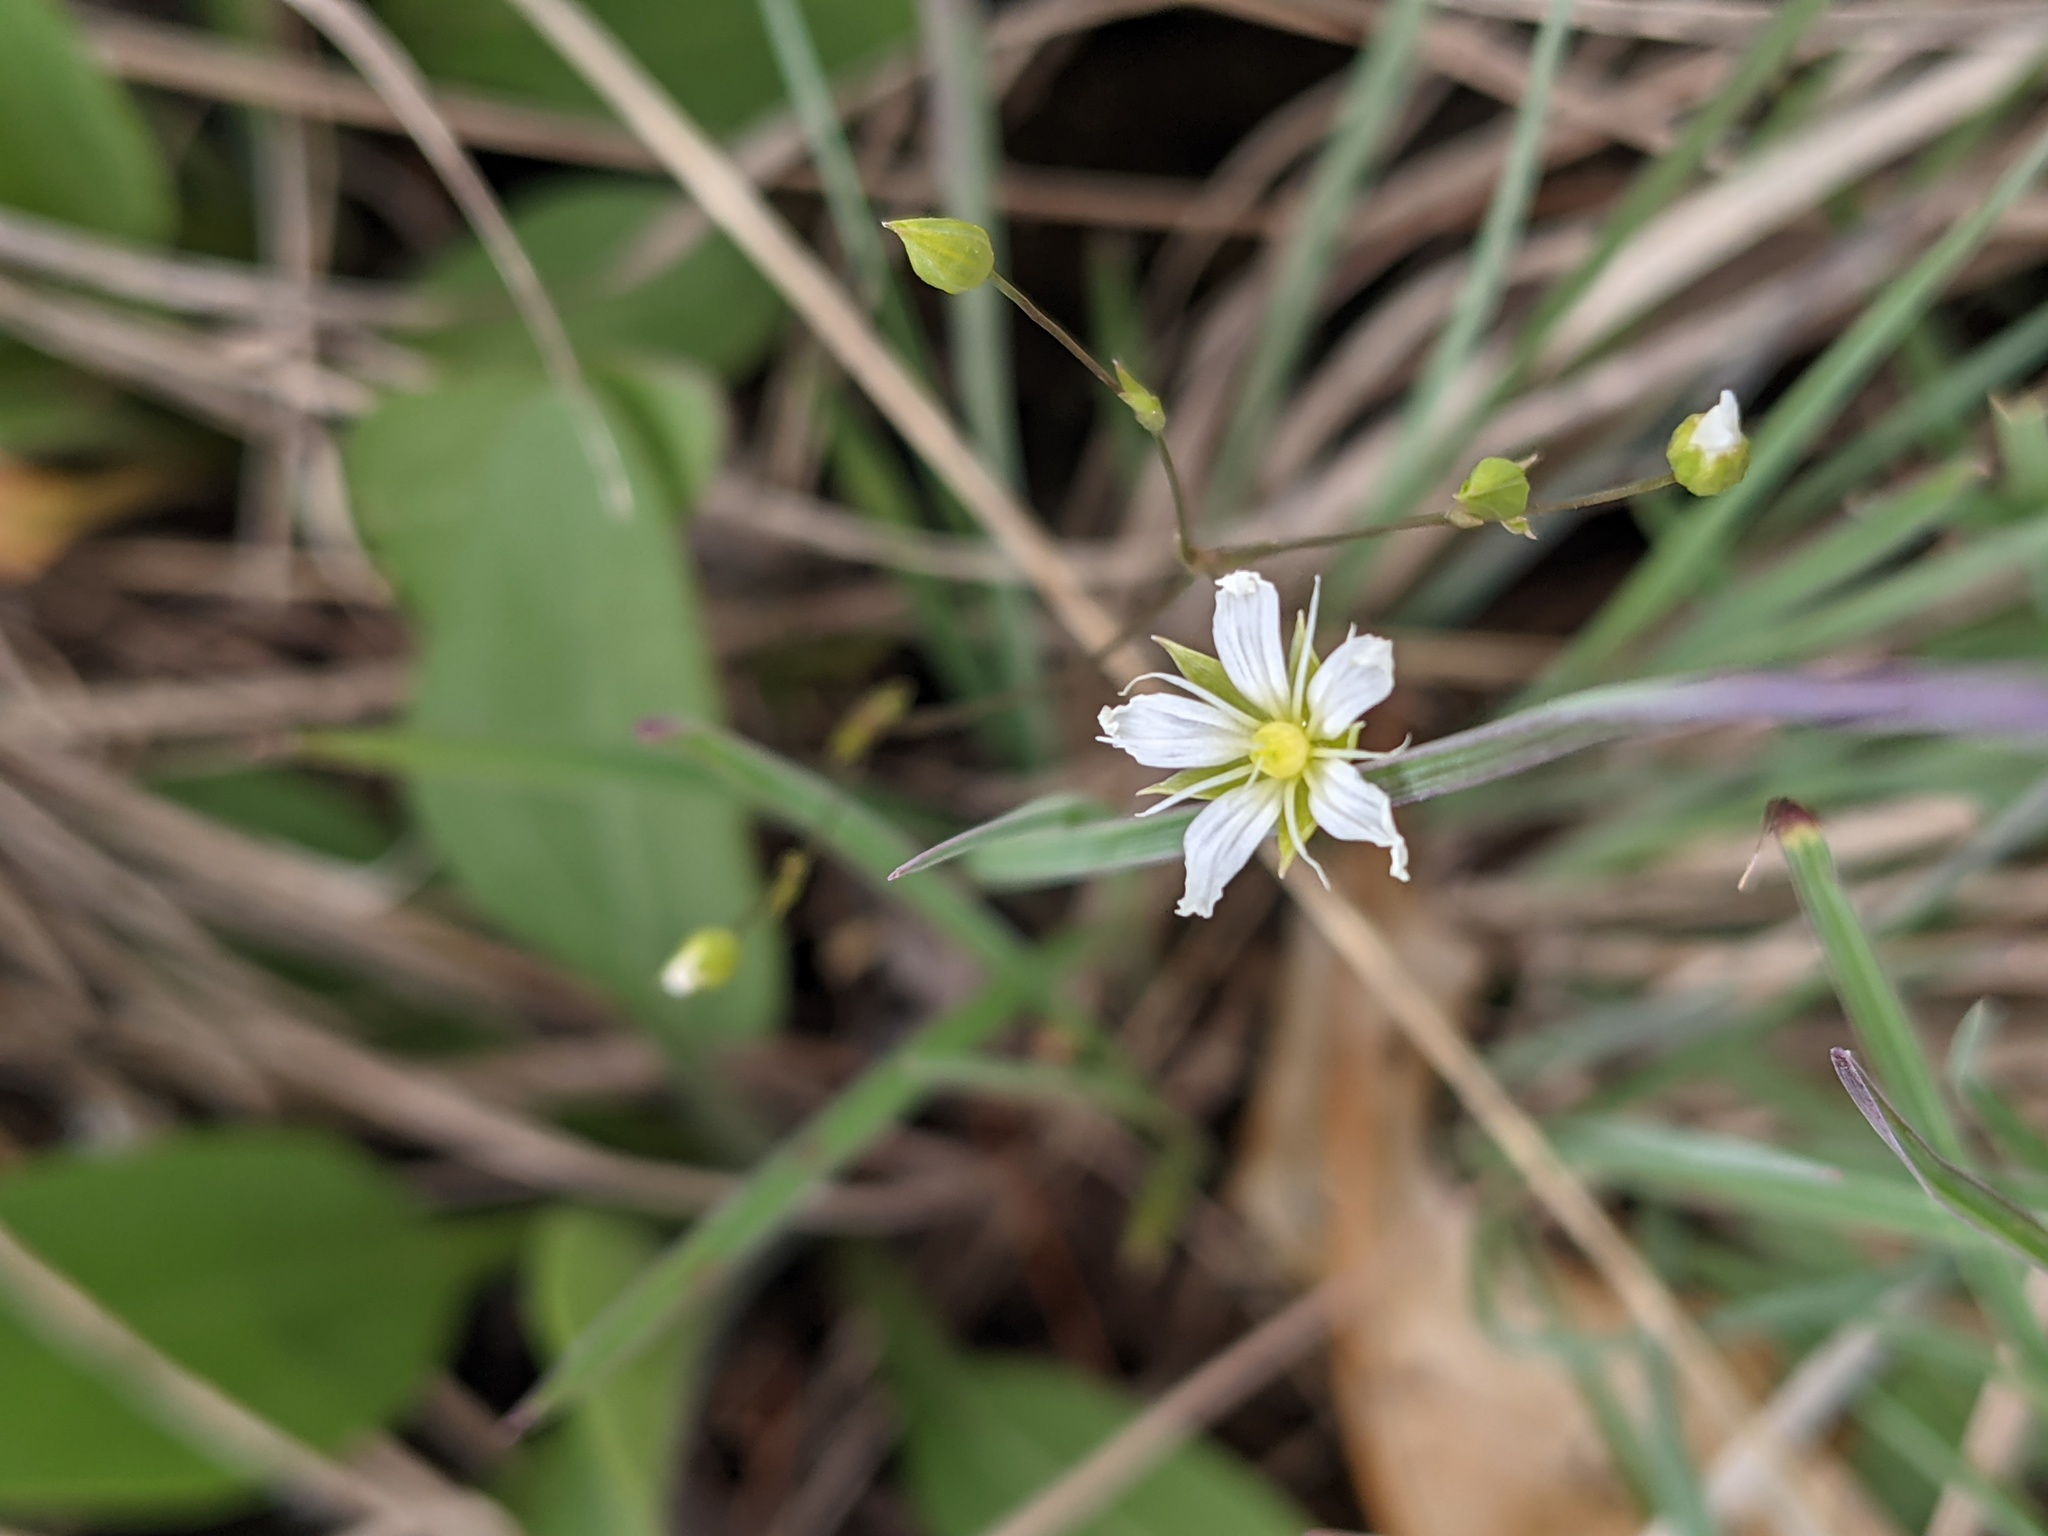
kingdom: Plantae
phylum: Tracheophyta
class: Magnoliopsida
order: Caryophyllales
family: Caryophyllaceae
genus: Sabulina
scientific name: Sabulina michauxii
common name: Michaux's stitchwort
